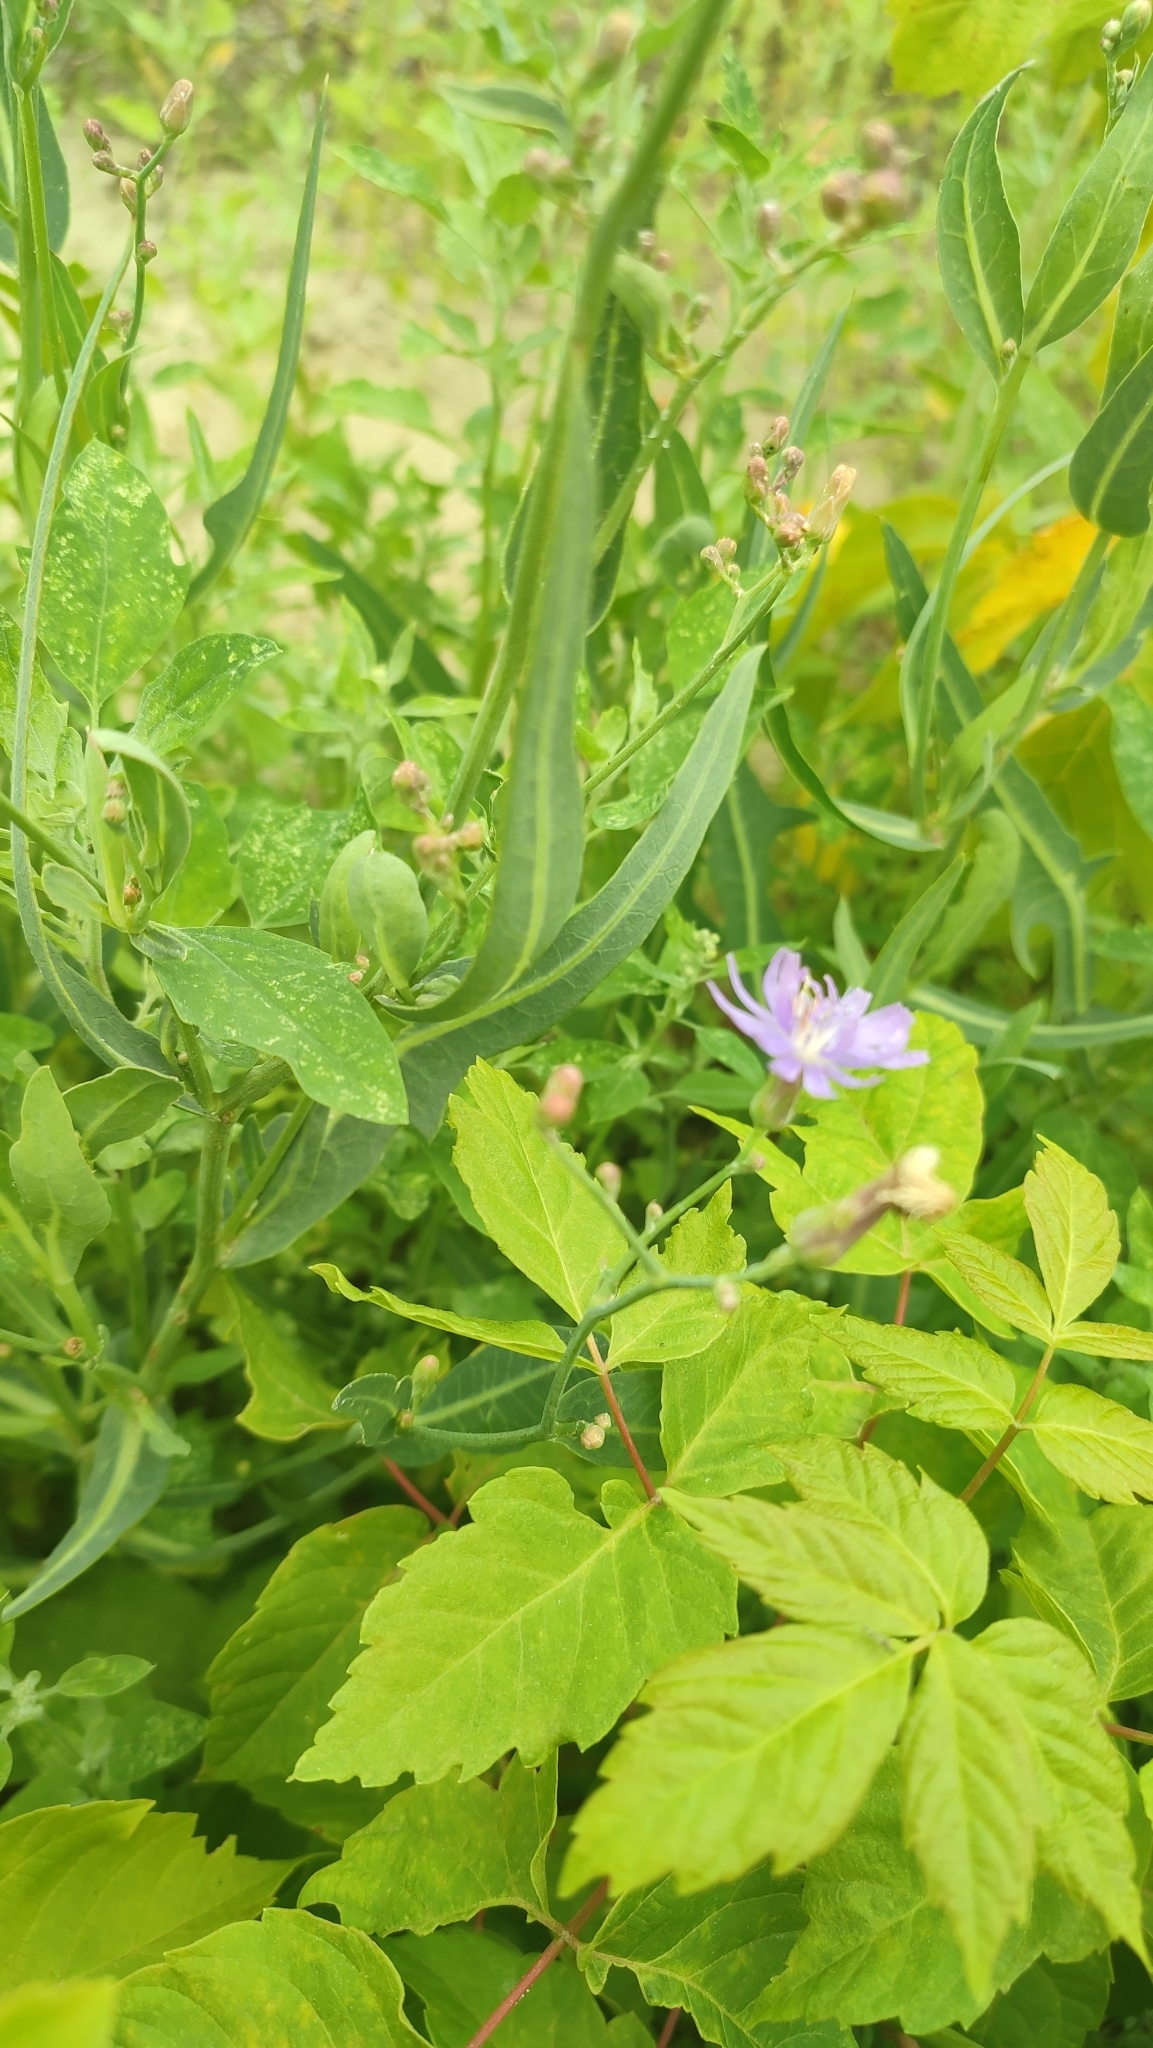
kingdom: Plantae
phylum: Tracheophyta
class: Magnoliopsida
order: Asterales
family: Asteraceae
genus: Lactuca
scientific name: Lactuca tatarica
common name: Blue lettuce
